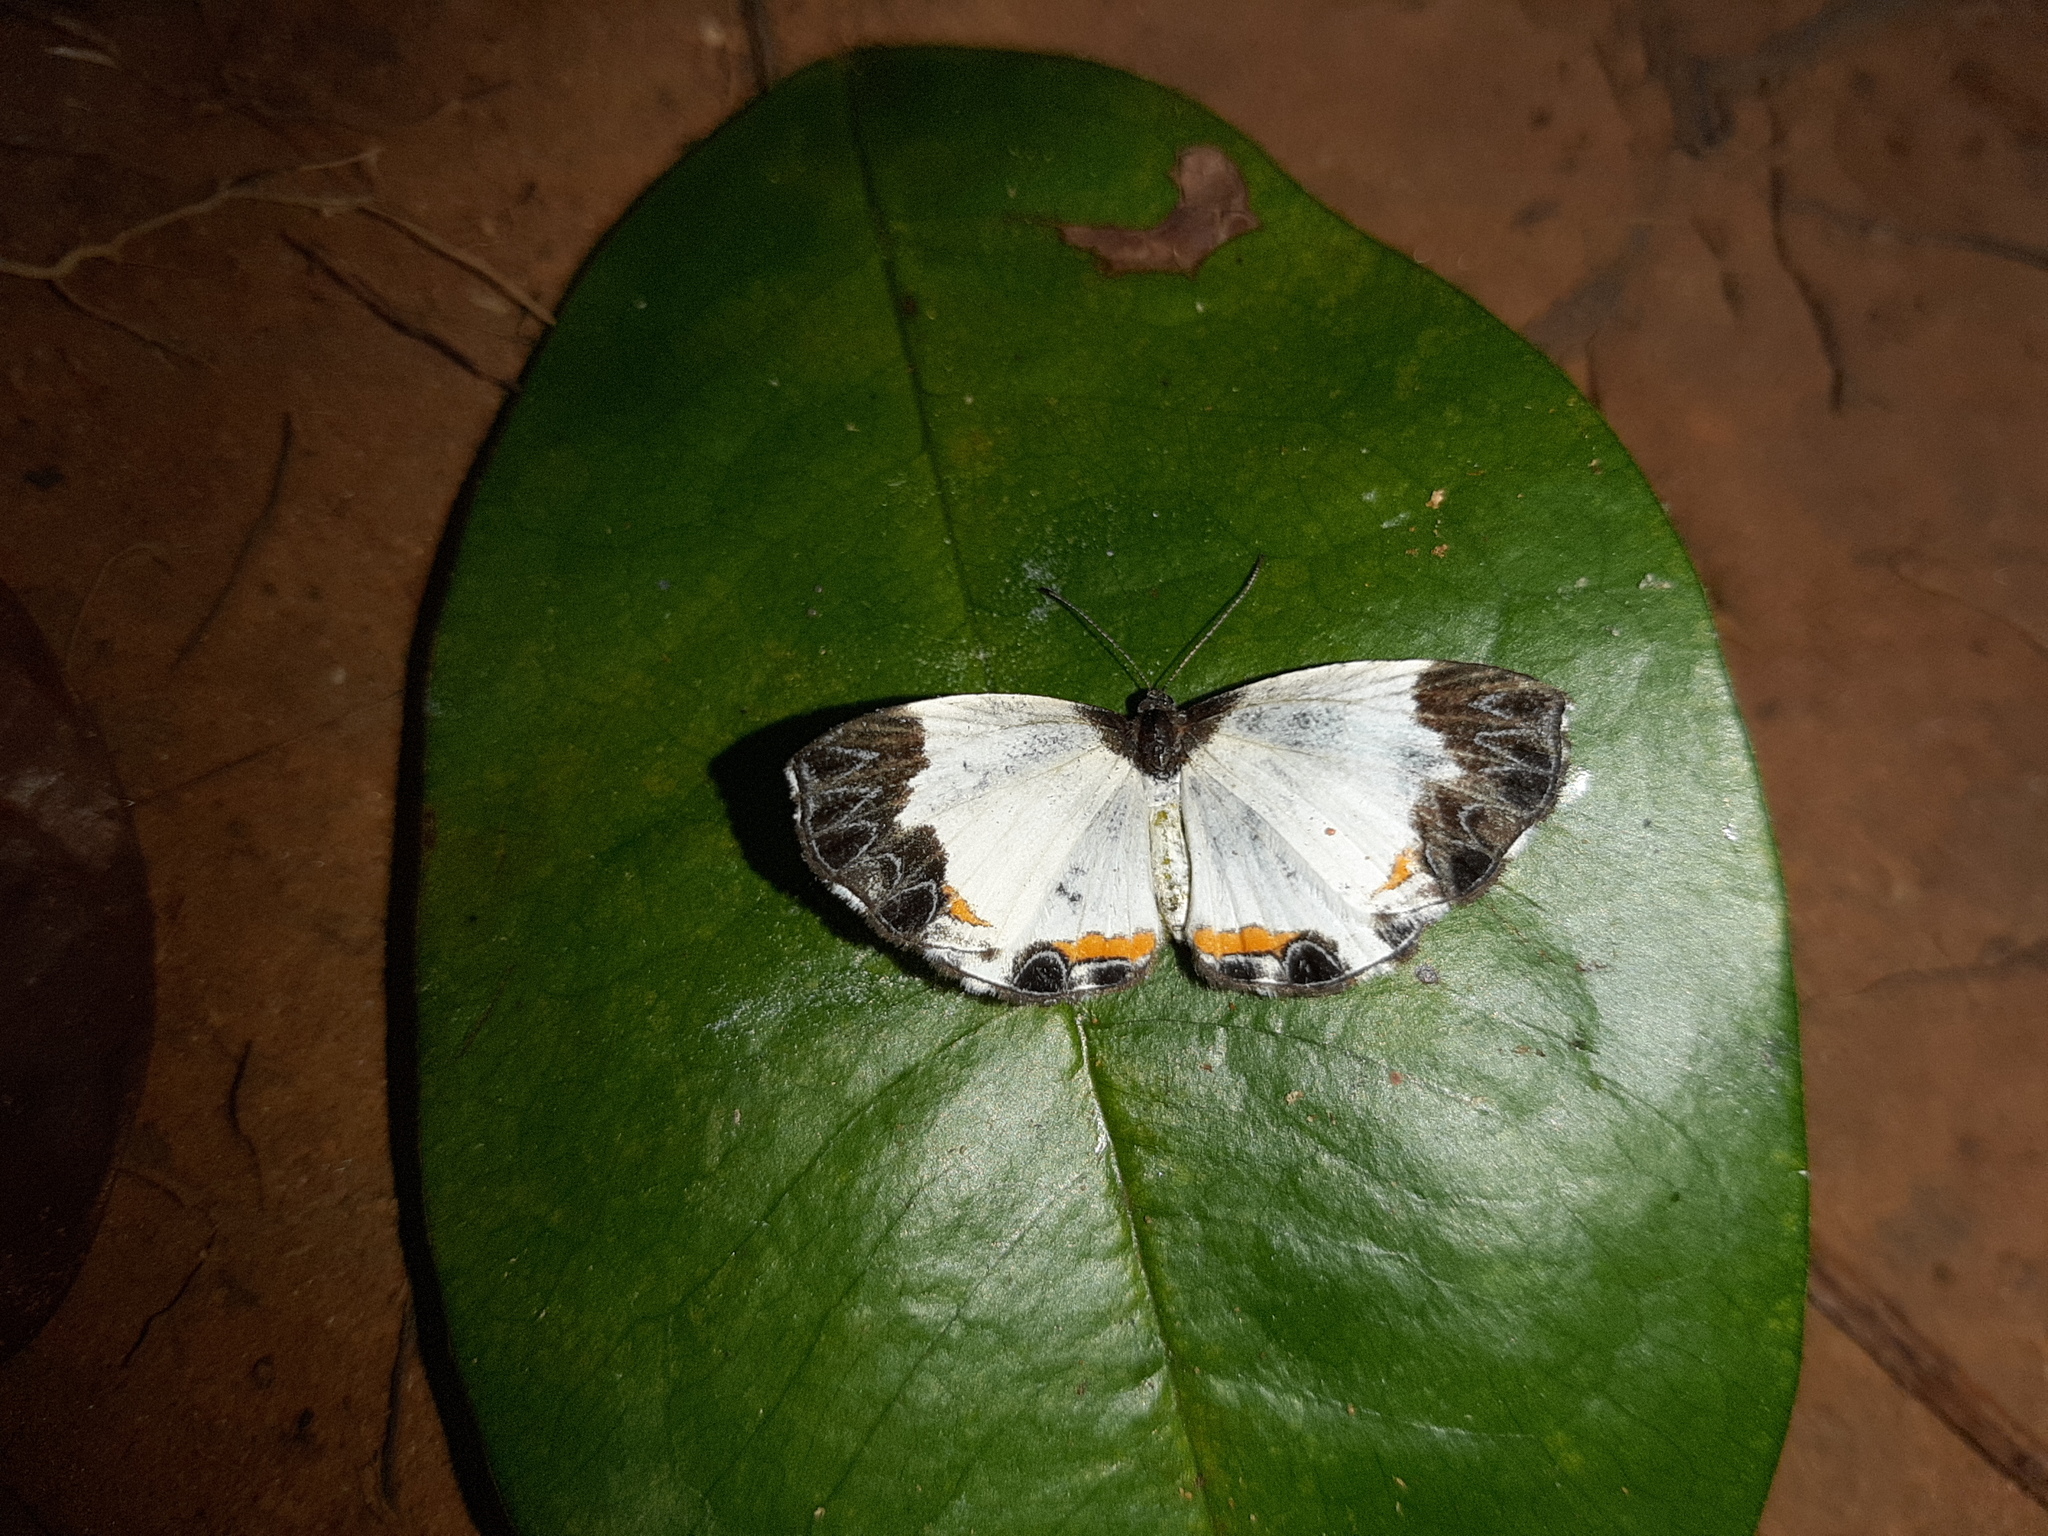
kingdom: Animalia
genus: Nymphidium
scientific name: Nymphidium ninias
